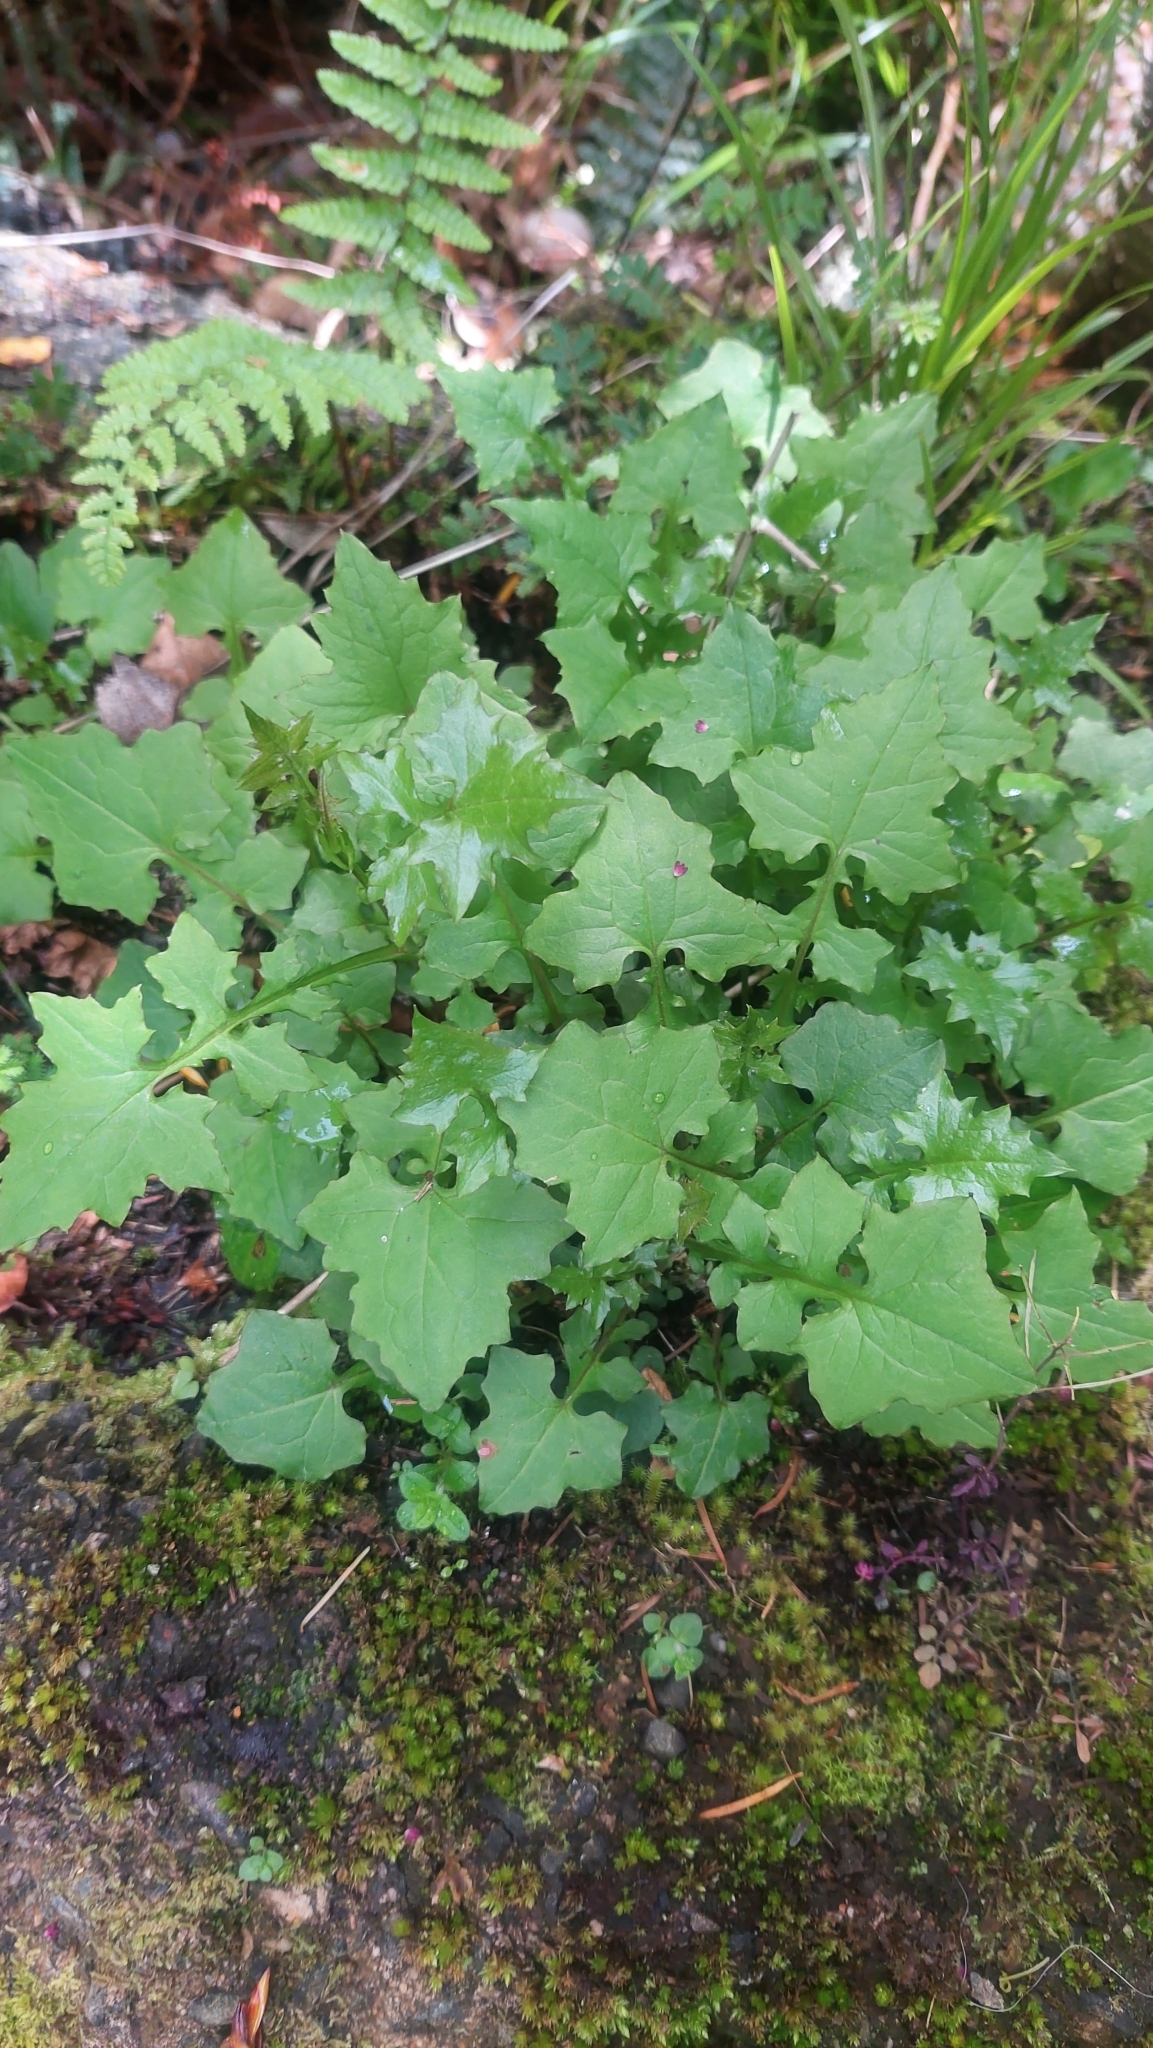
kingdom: Plantae
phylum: Tracheophyta
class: Magnoliopsida
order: Asterales
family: Asteraceae
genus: Mycelis
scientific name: Mycelis muralis
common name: Wall lettuce
